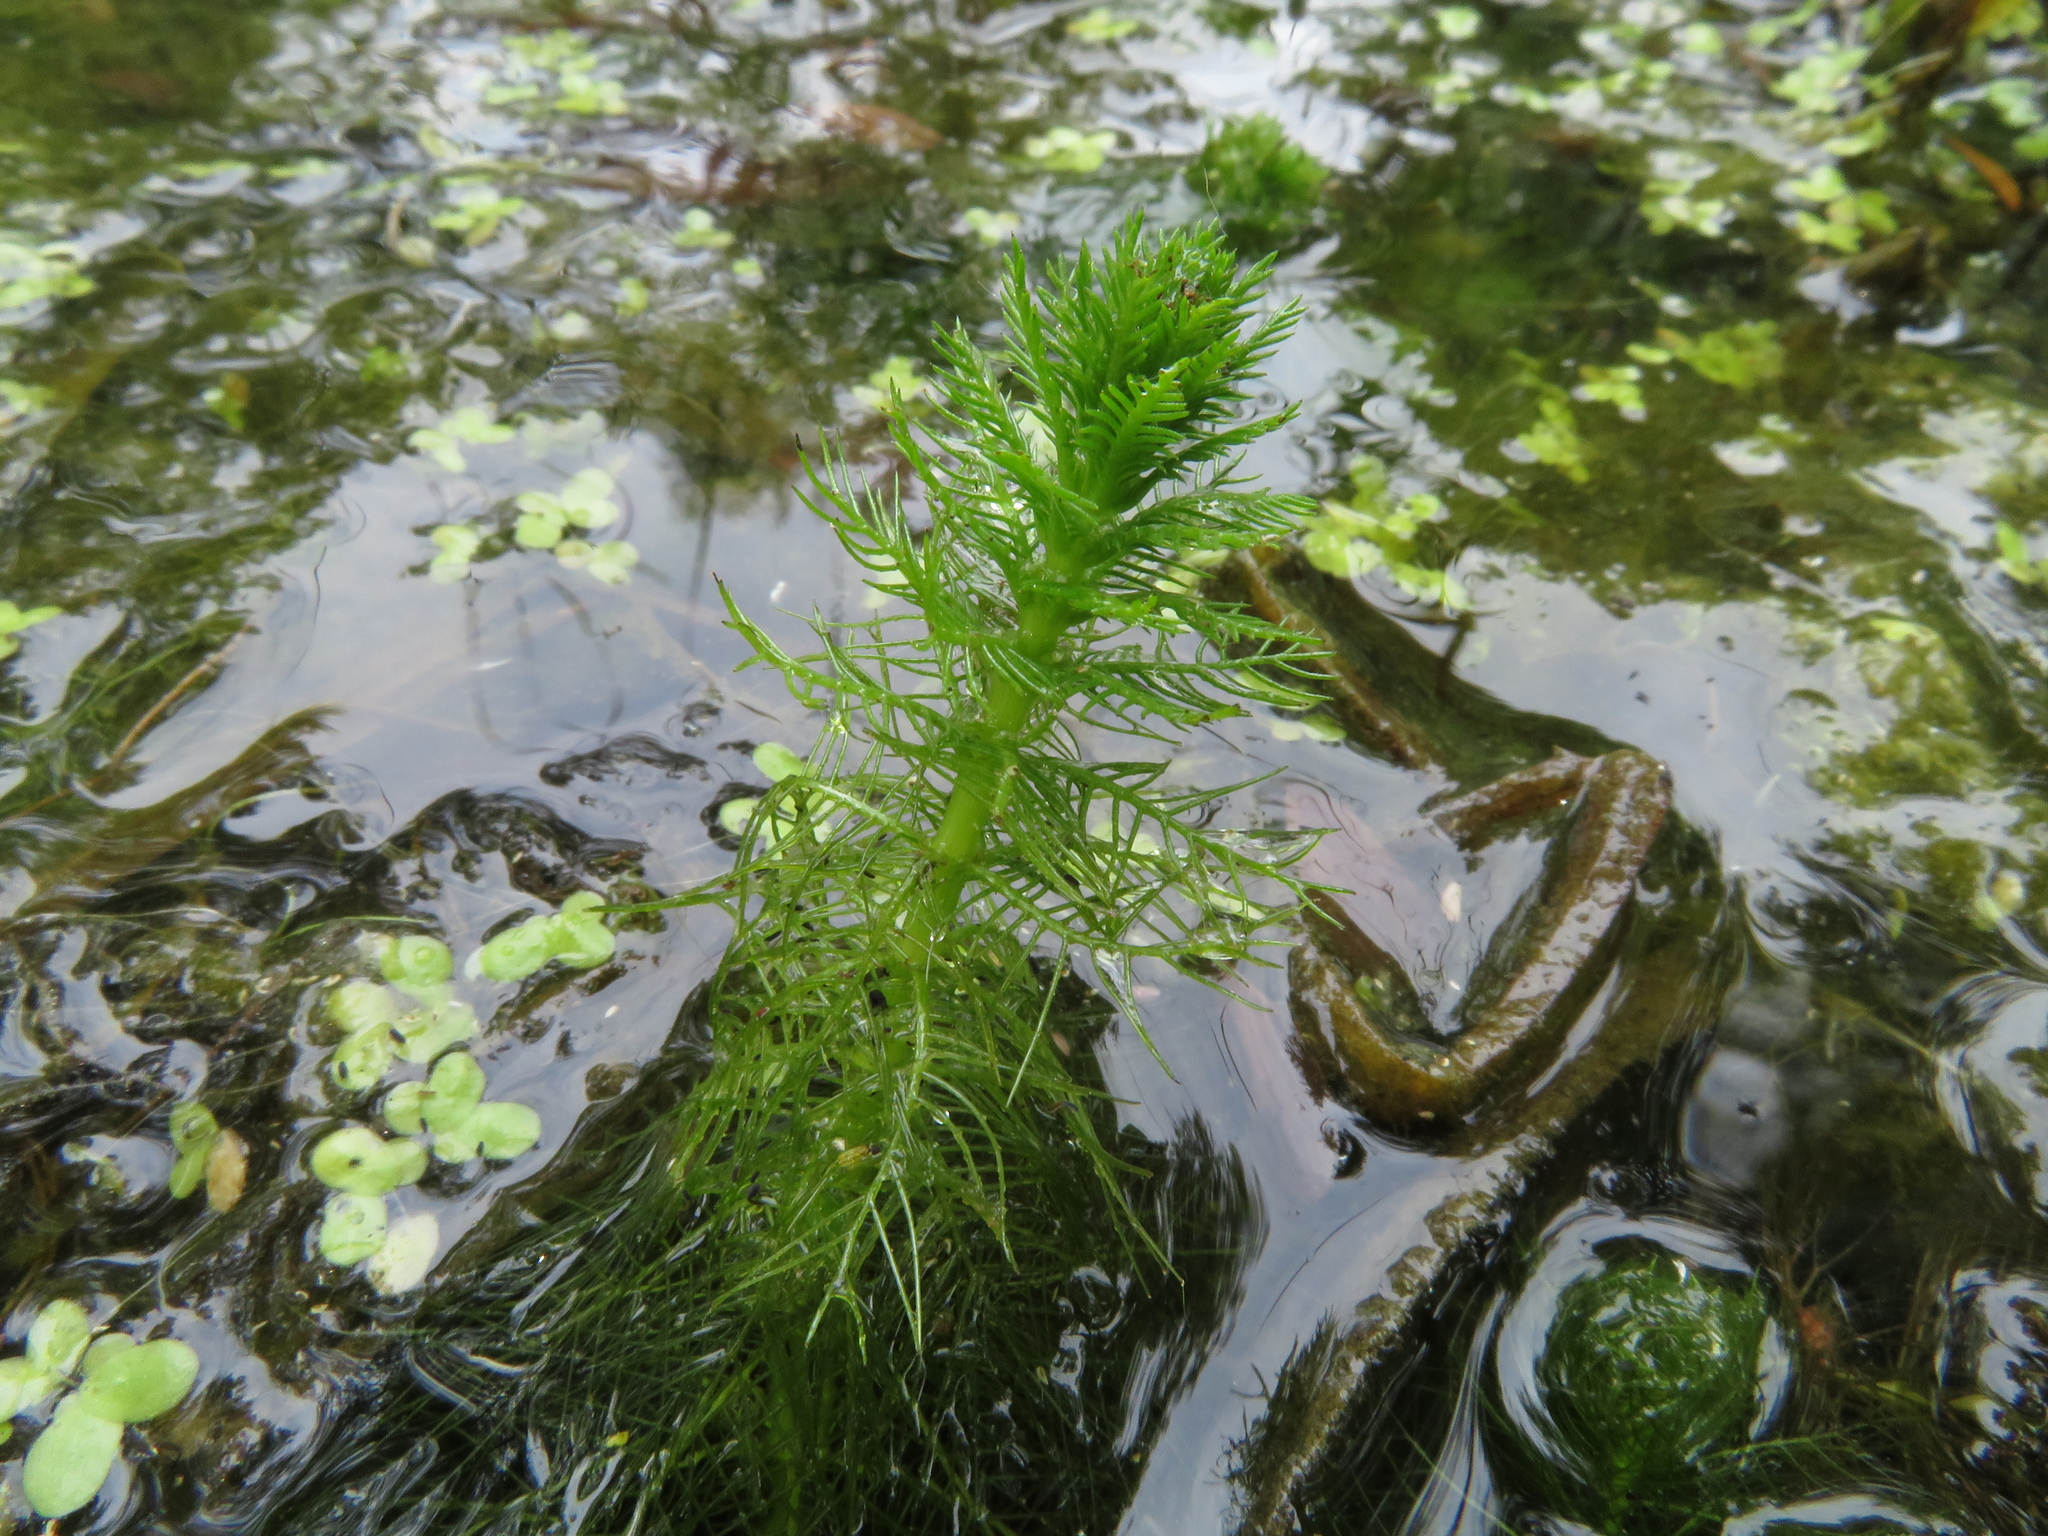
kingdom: Plantae
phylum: Tracheophyta
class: Magnoliopsida
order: Saxifragales
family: Haloragaceae
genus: Myriophyllum
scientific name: Myriophyllum verticillatum
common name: Whorled water-milfoil
